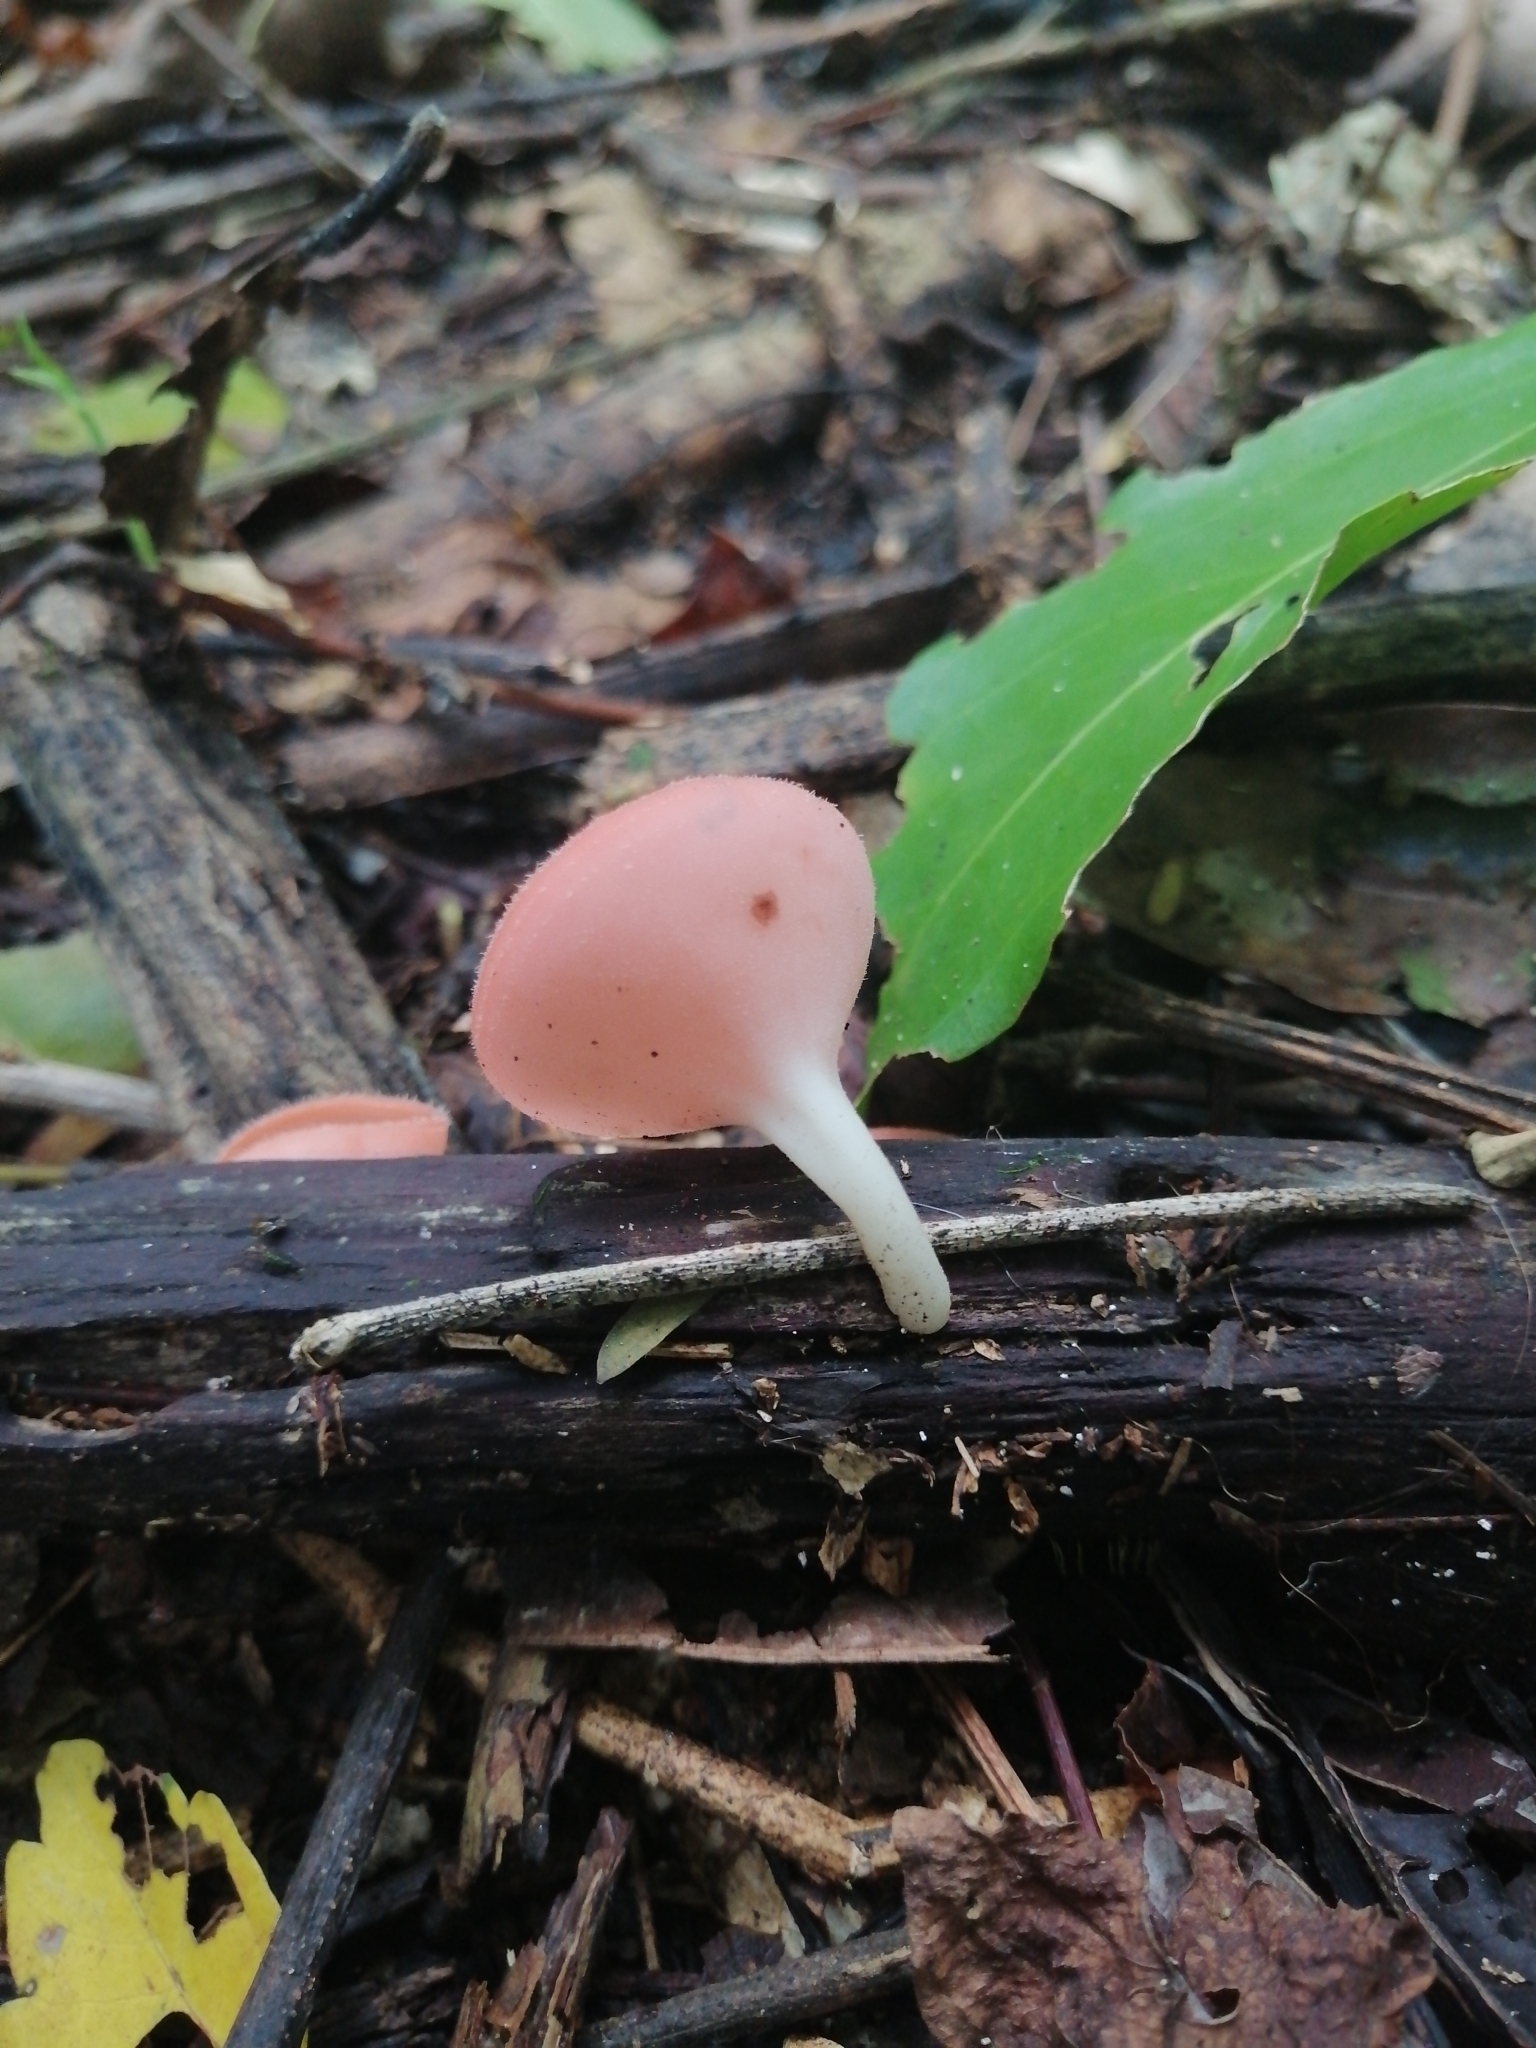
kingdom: Fungi
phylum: Ascomycota
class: Pezizomycetes
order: Pezizales
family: Sarcoscyphaceae
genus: Cookeina
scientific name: Cookeina speciosa
